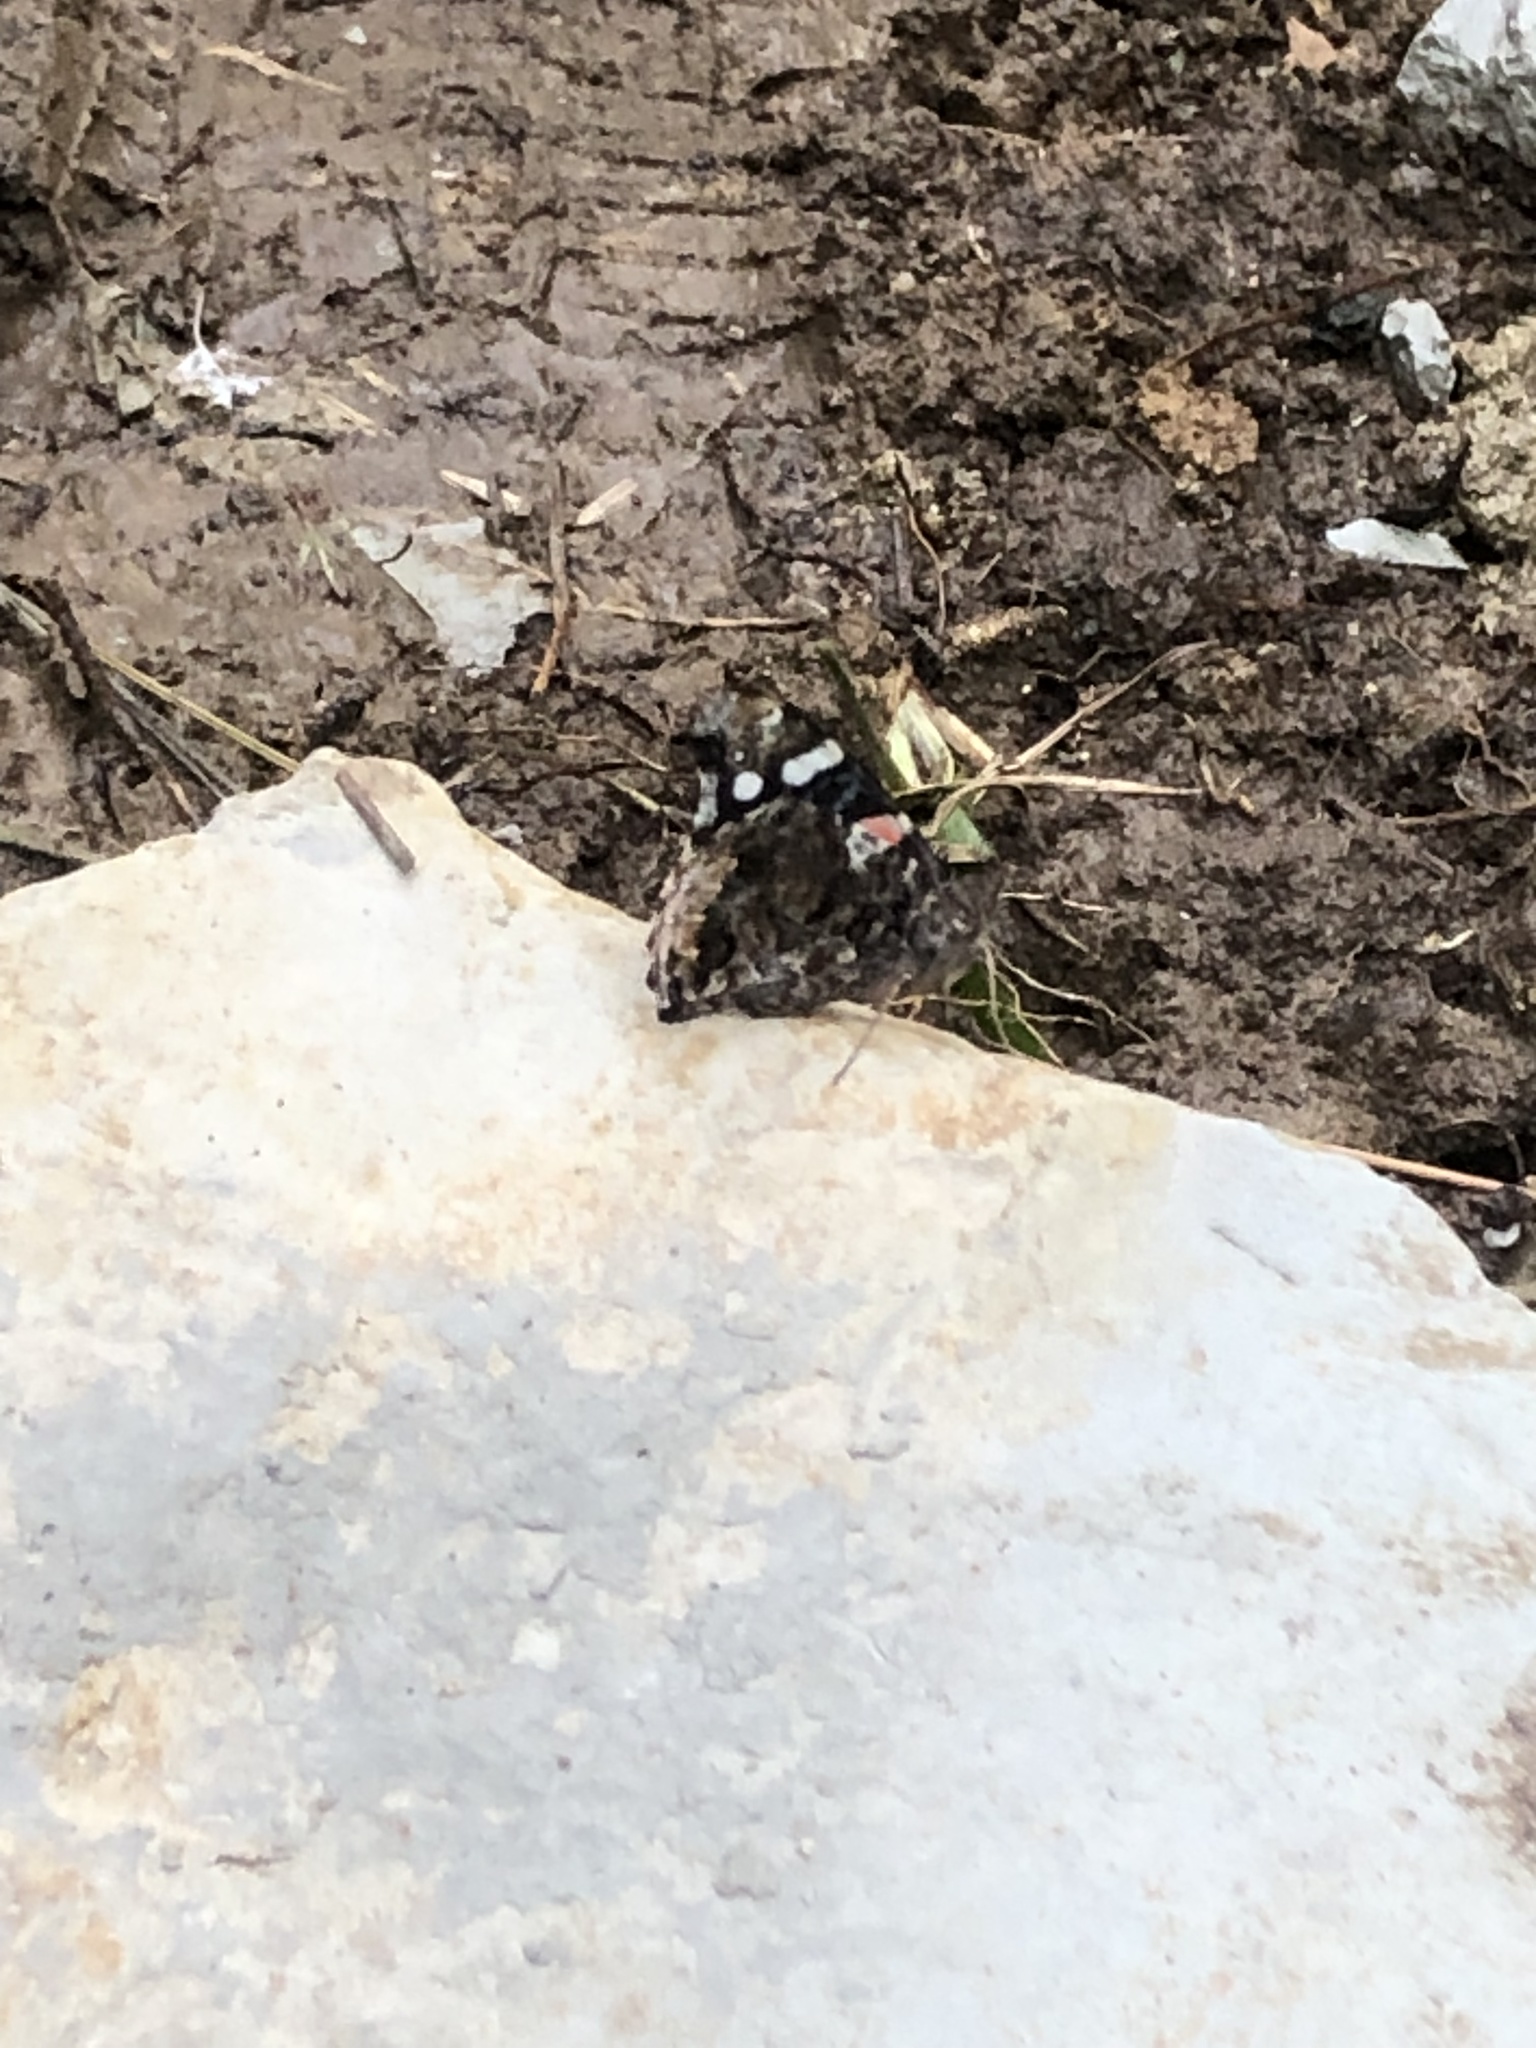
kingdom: Animalia
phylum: Arthropoda
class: Insecta
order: Lepidoptera
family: Nymphalidae
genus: Vanessa
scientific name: Vanessa atalanta
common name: Red admiral
